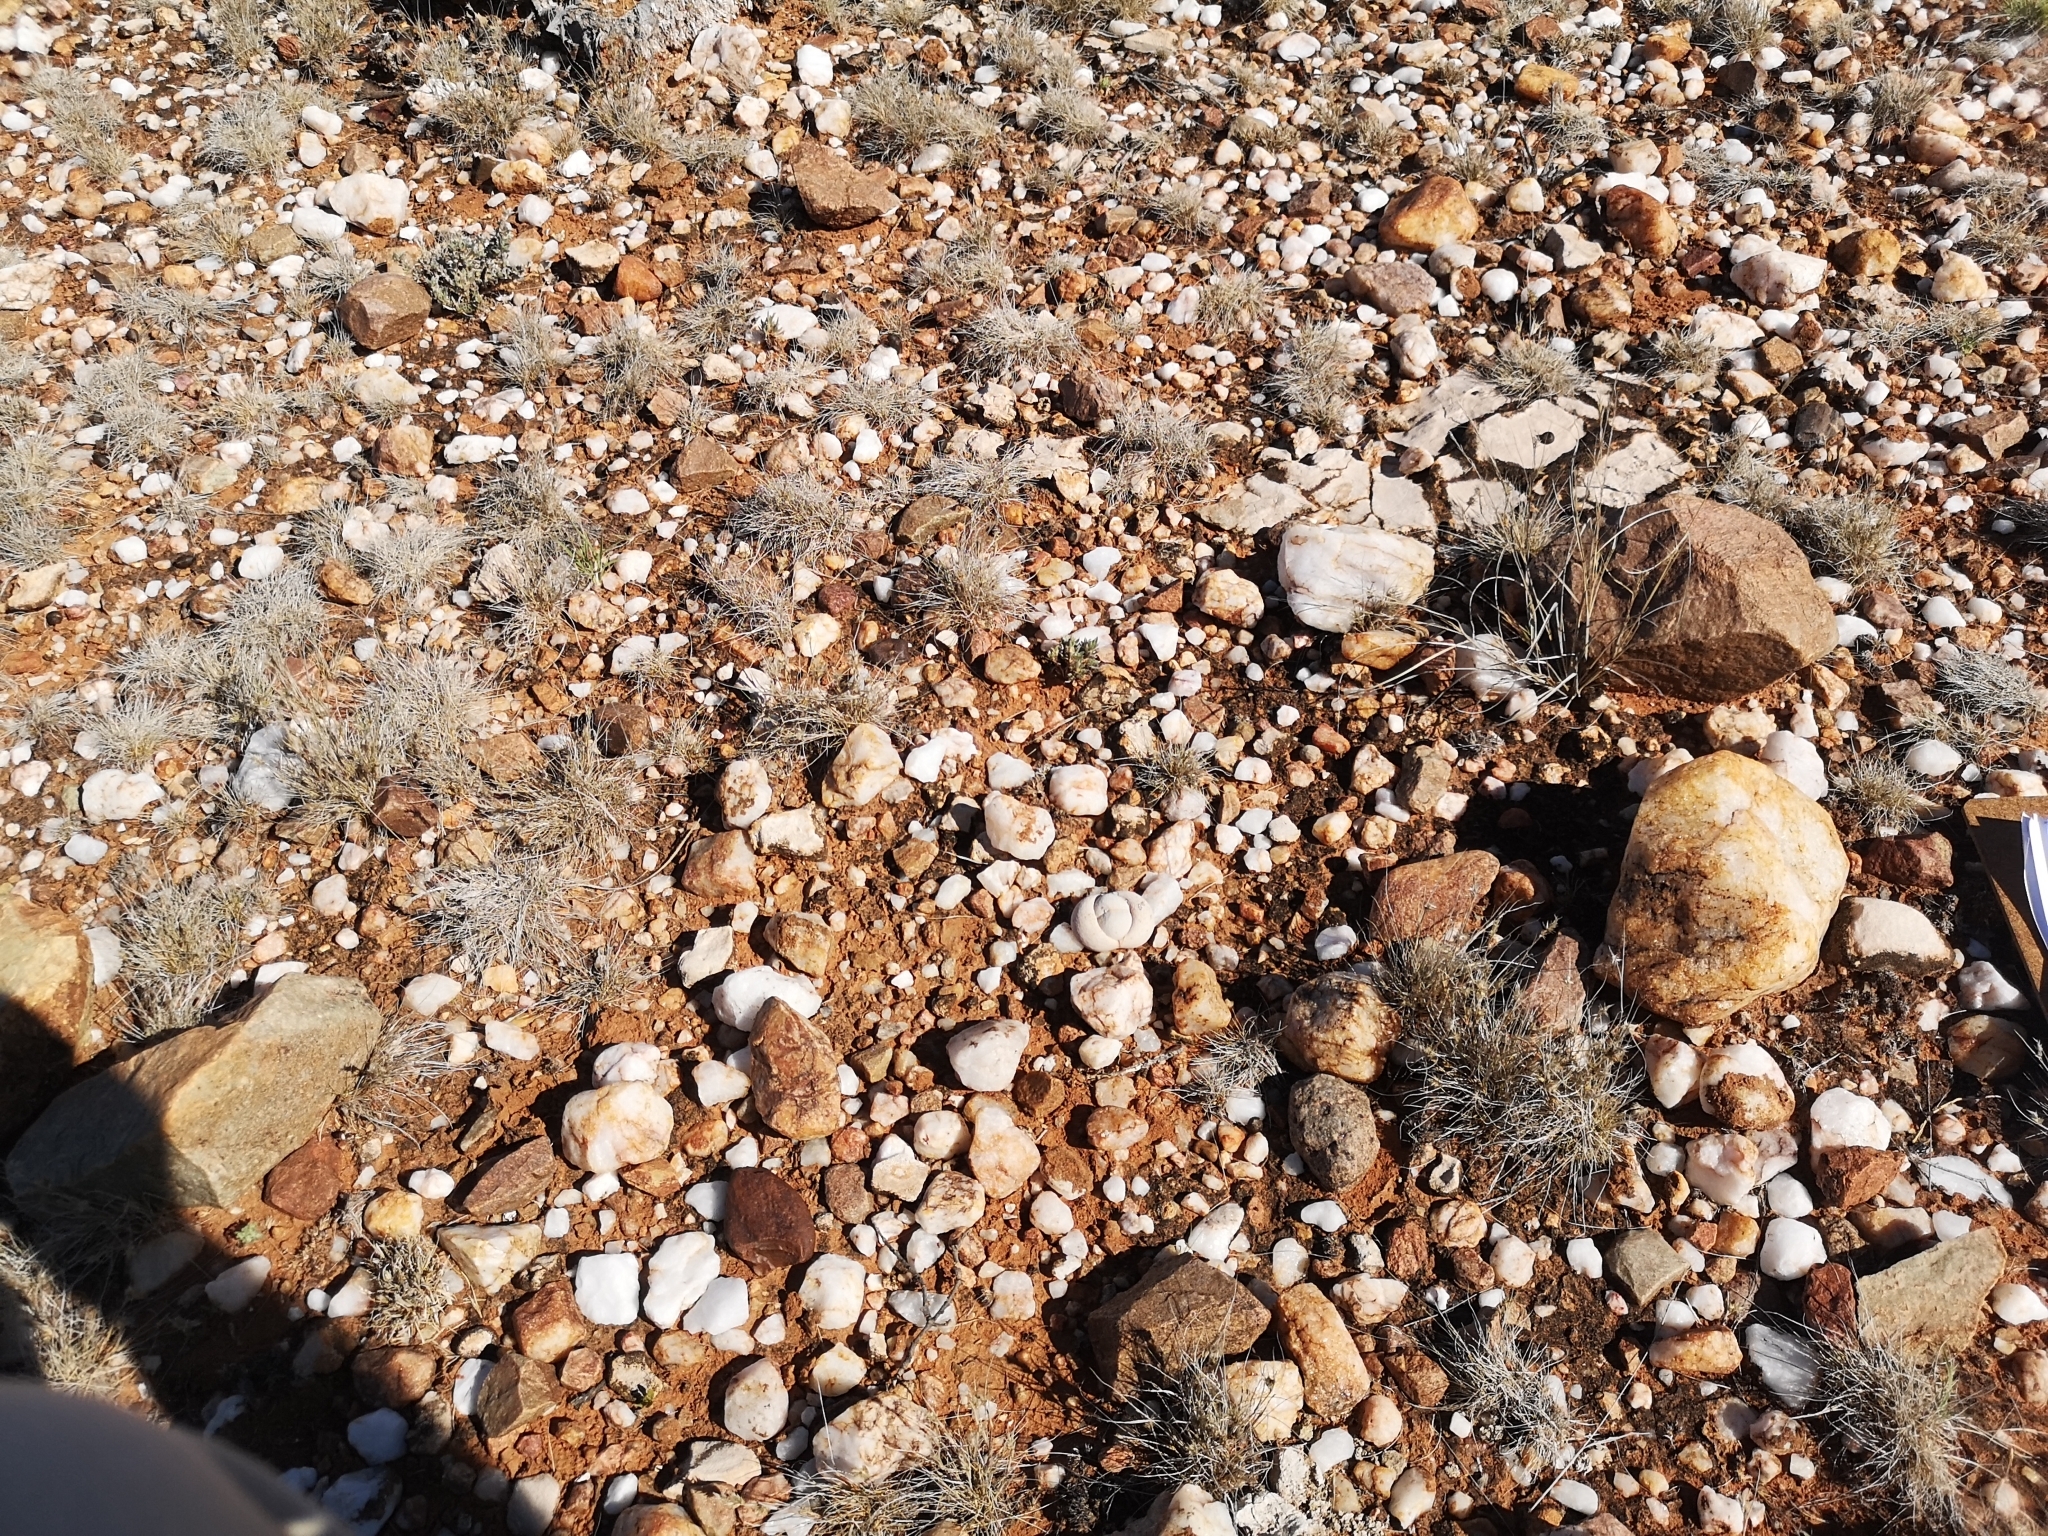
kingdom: Plantae
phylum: Tracheophyta
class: Magnoliopsida
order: Caryophyllales
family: Aizoaceae
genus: Dinteranthus
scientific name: Dinteranthus pole-evansii
